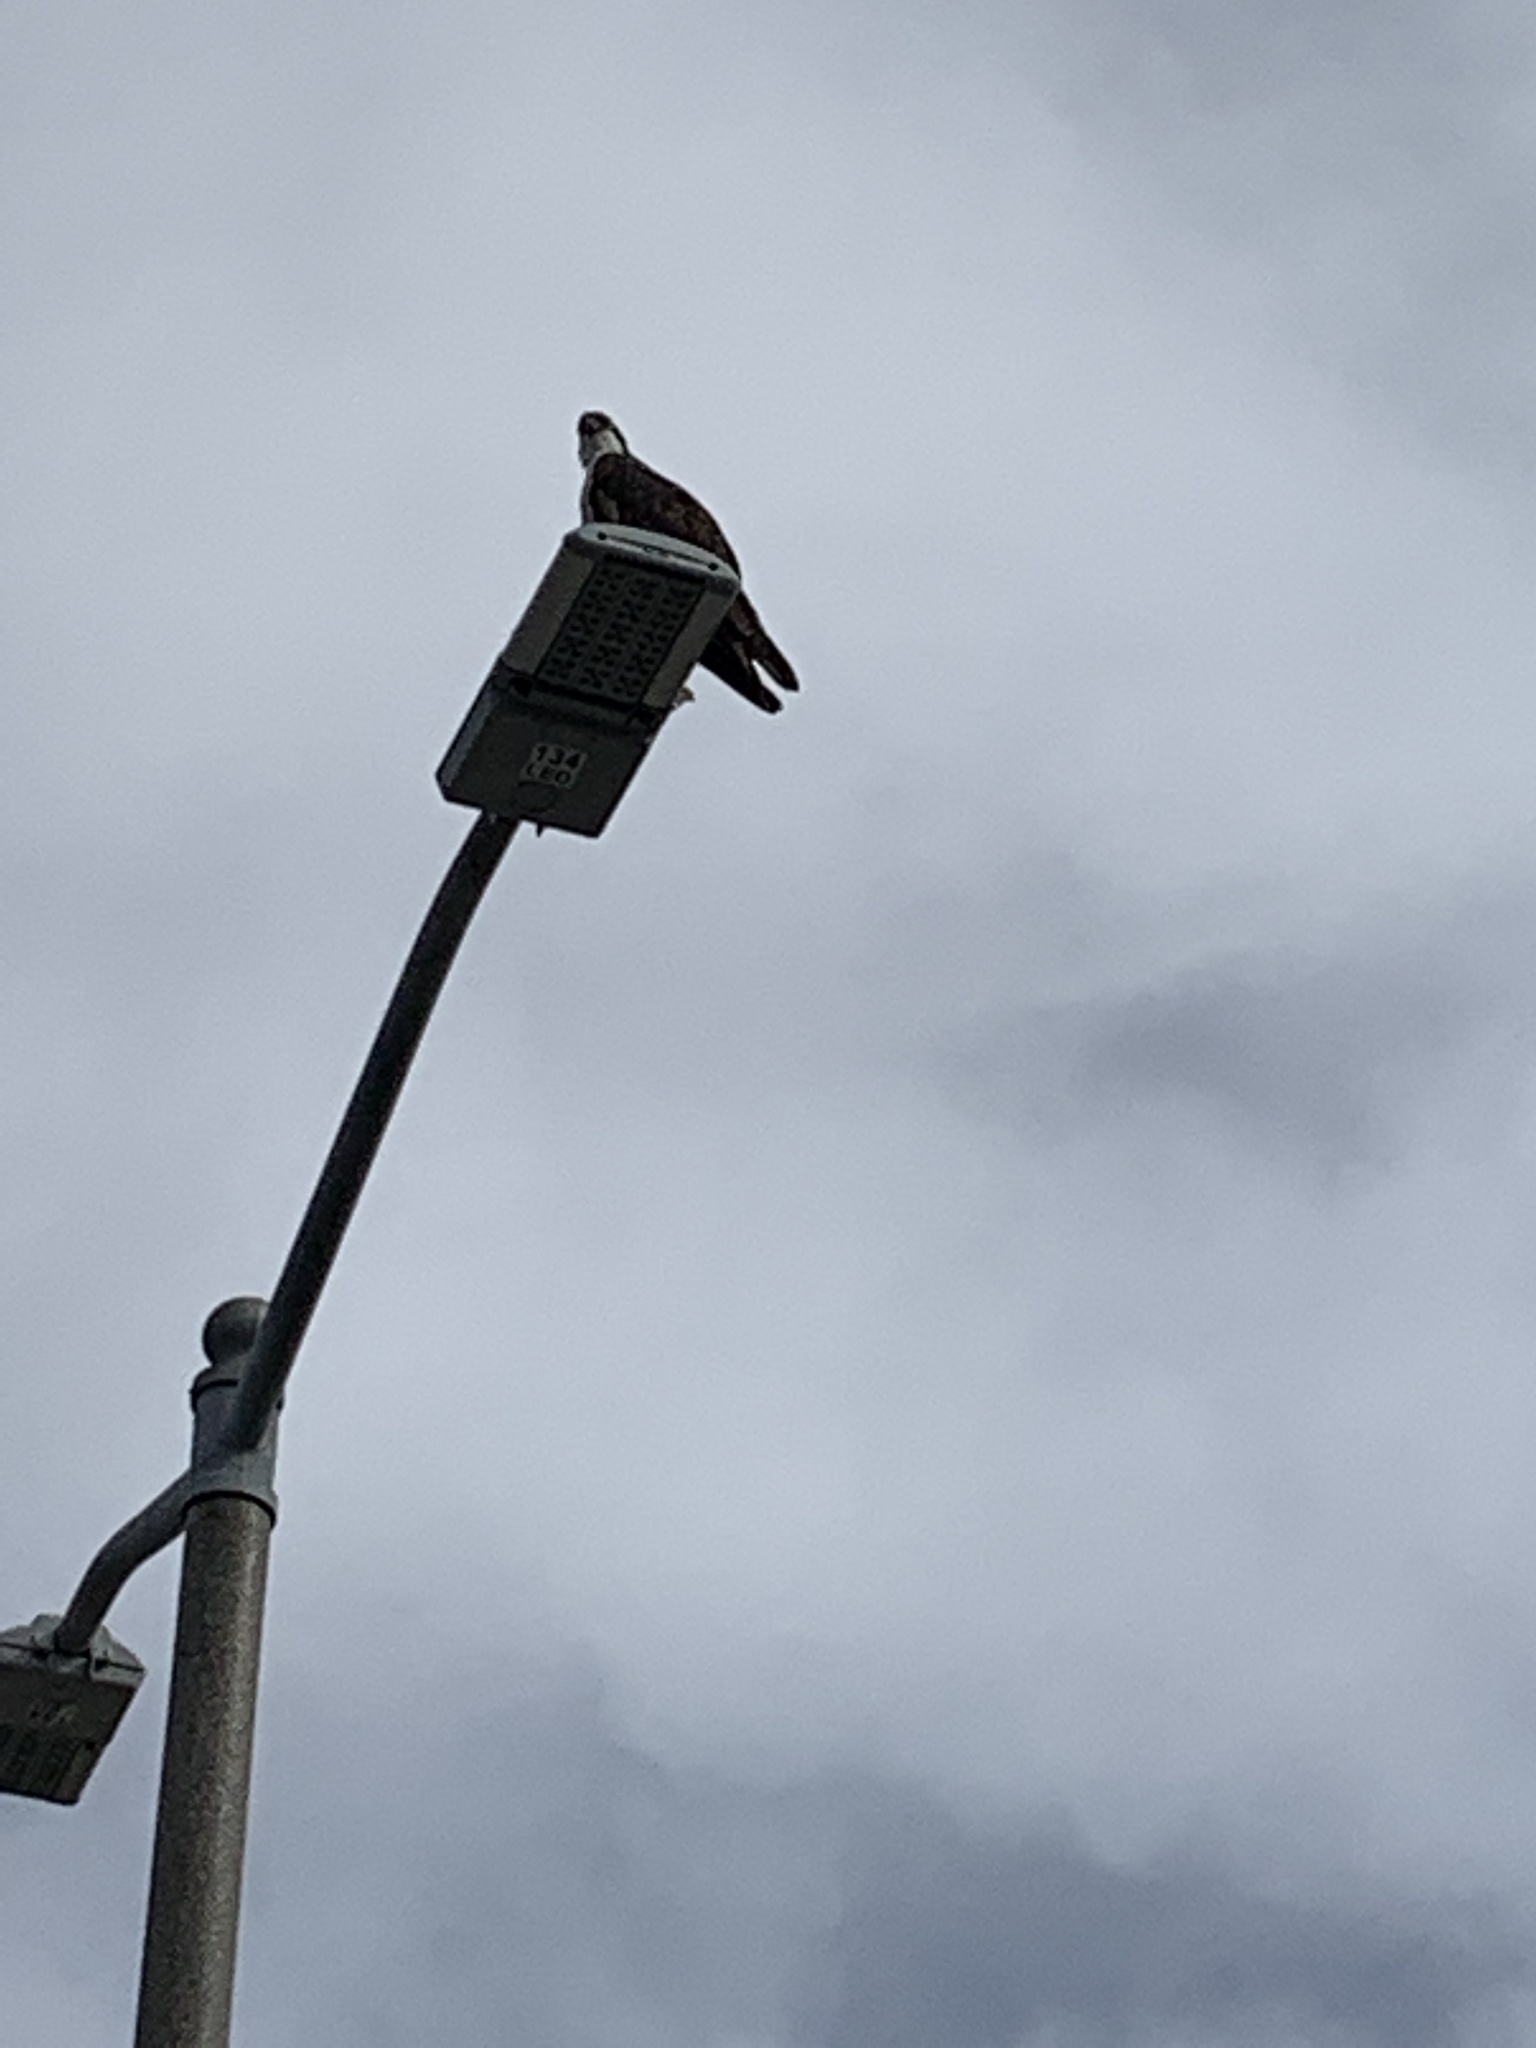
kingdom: Animalia
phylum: Chordata
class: Aves
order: Accipitriformes
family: Pandionidae
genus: Pandion
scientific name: Pandion haliaetus
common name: Osprey
